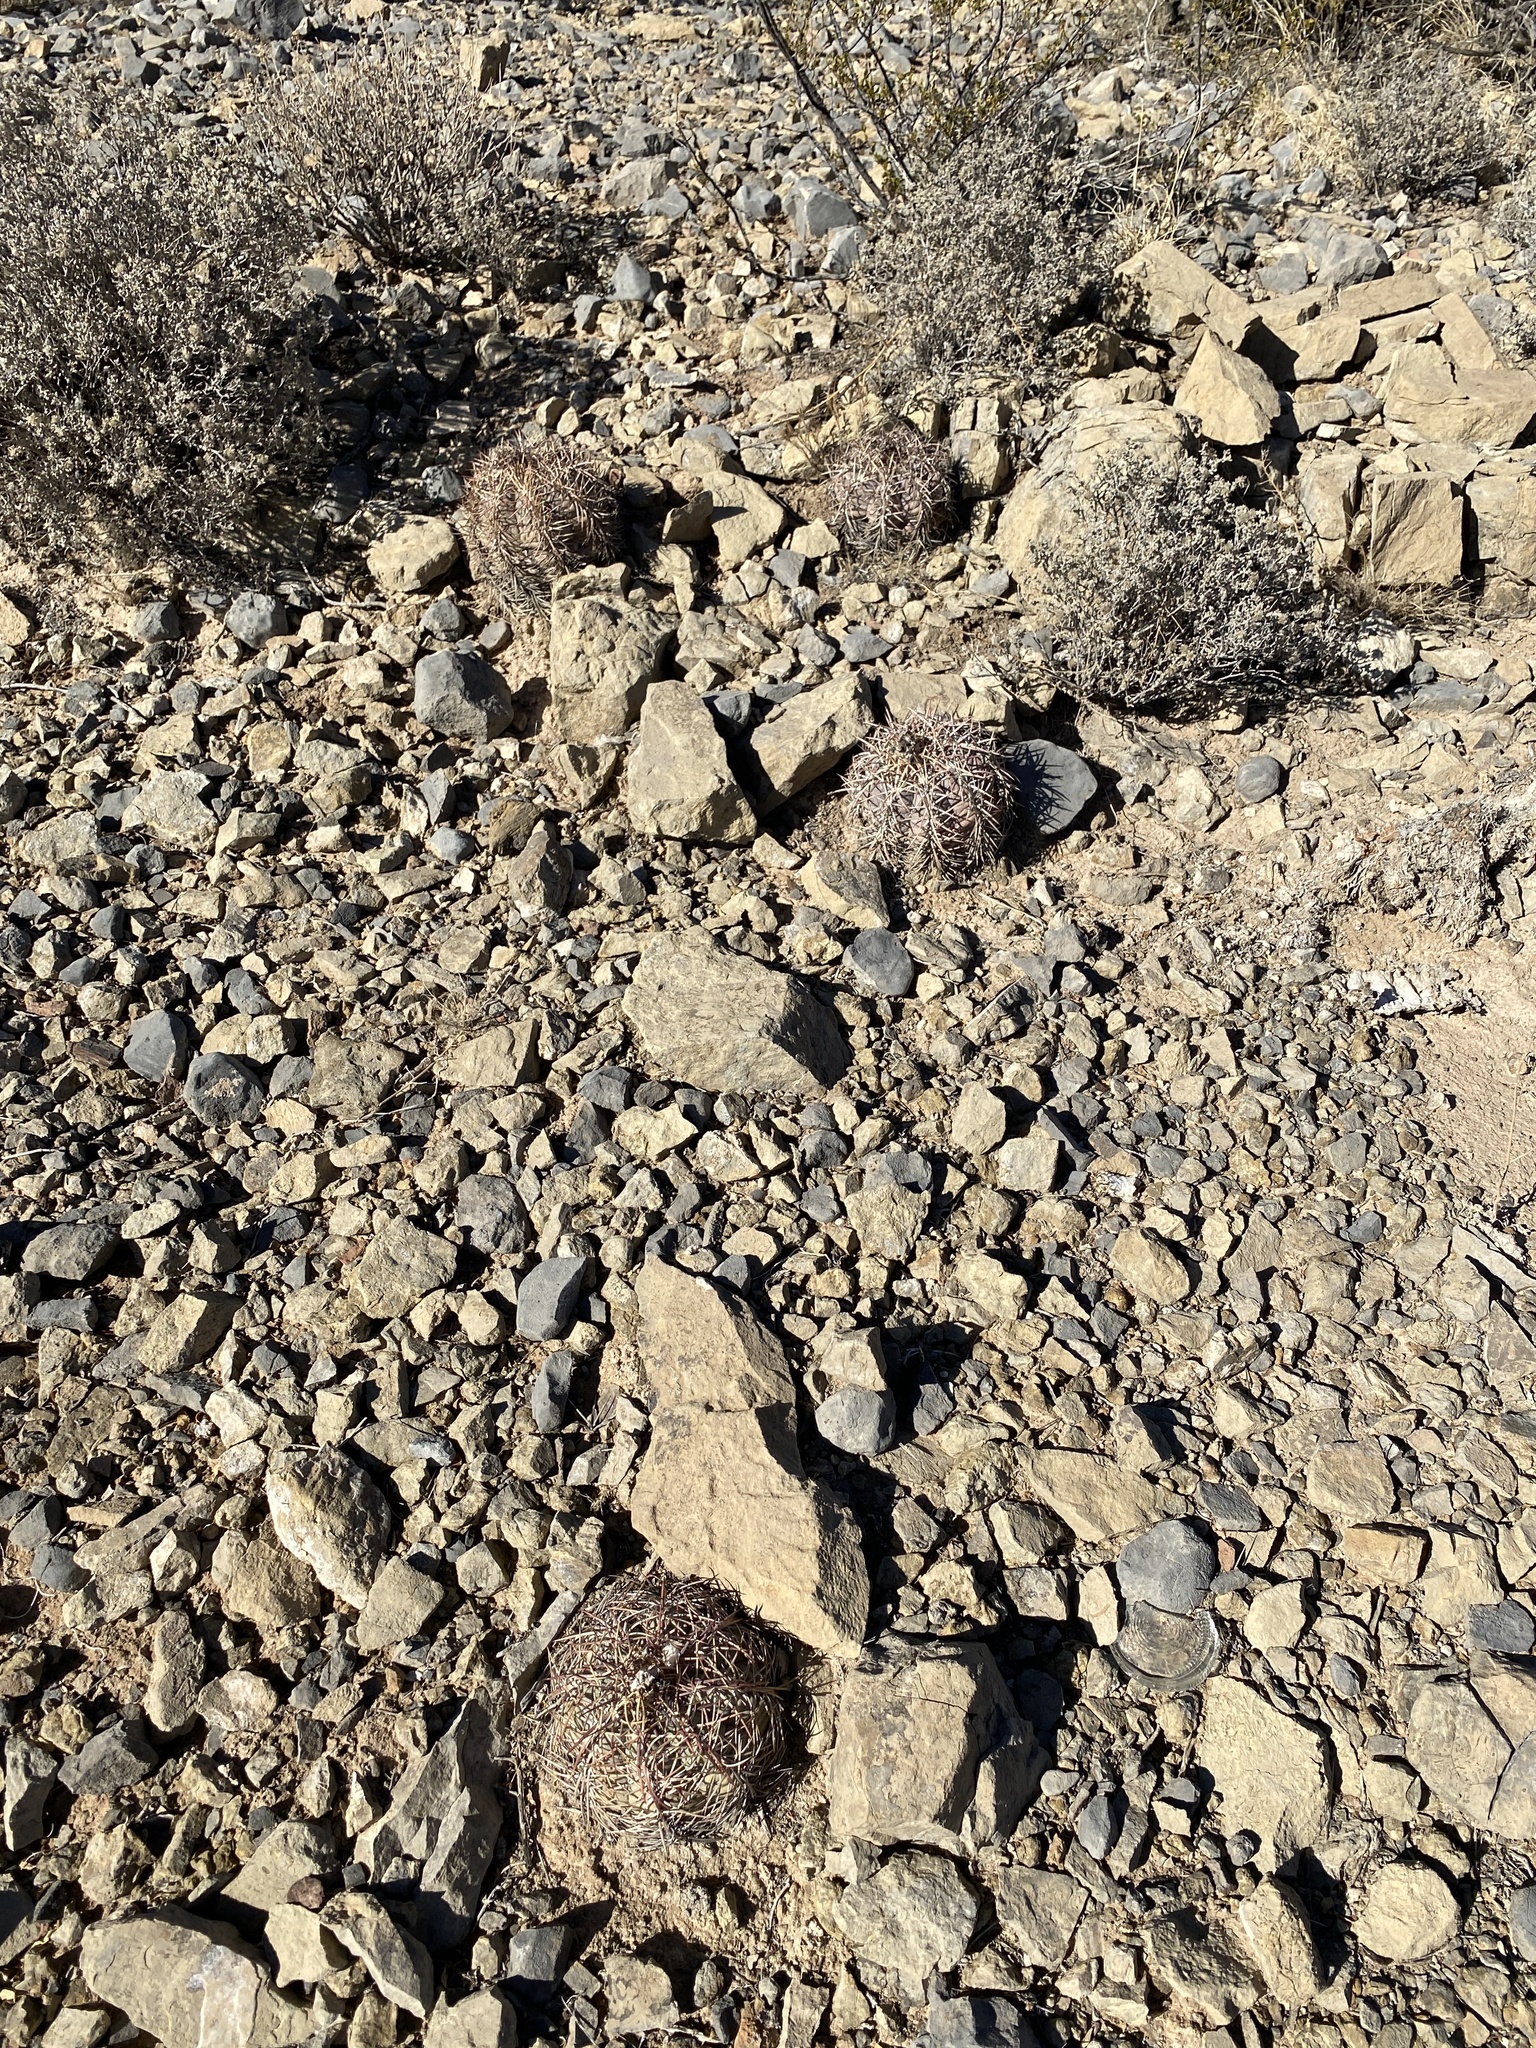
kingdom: Plantae
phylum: Tracheophyta
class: Magnoliopsida
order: Caryophyllales
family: Cactaceae
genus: Echinocactus
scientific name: Echinocactus horizonthalonius
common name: Devilshead
